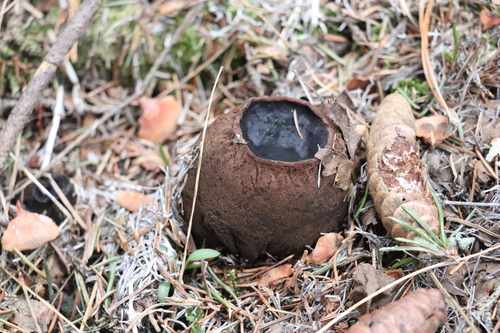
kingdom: Fungi
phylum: Ascomycota
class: Pezizomycetes
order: Pezizales
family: Sarcosomataceae
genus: Sarcosoma
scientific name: Sarcosoma globosum
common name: Charred-pancake cup
